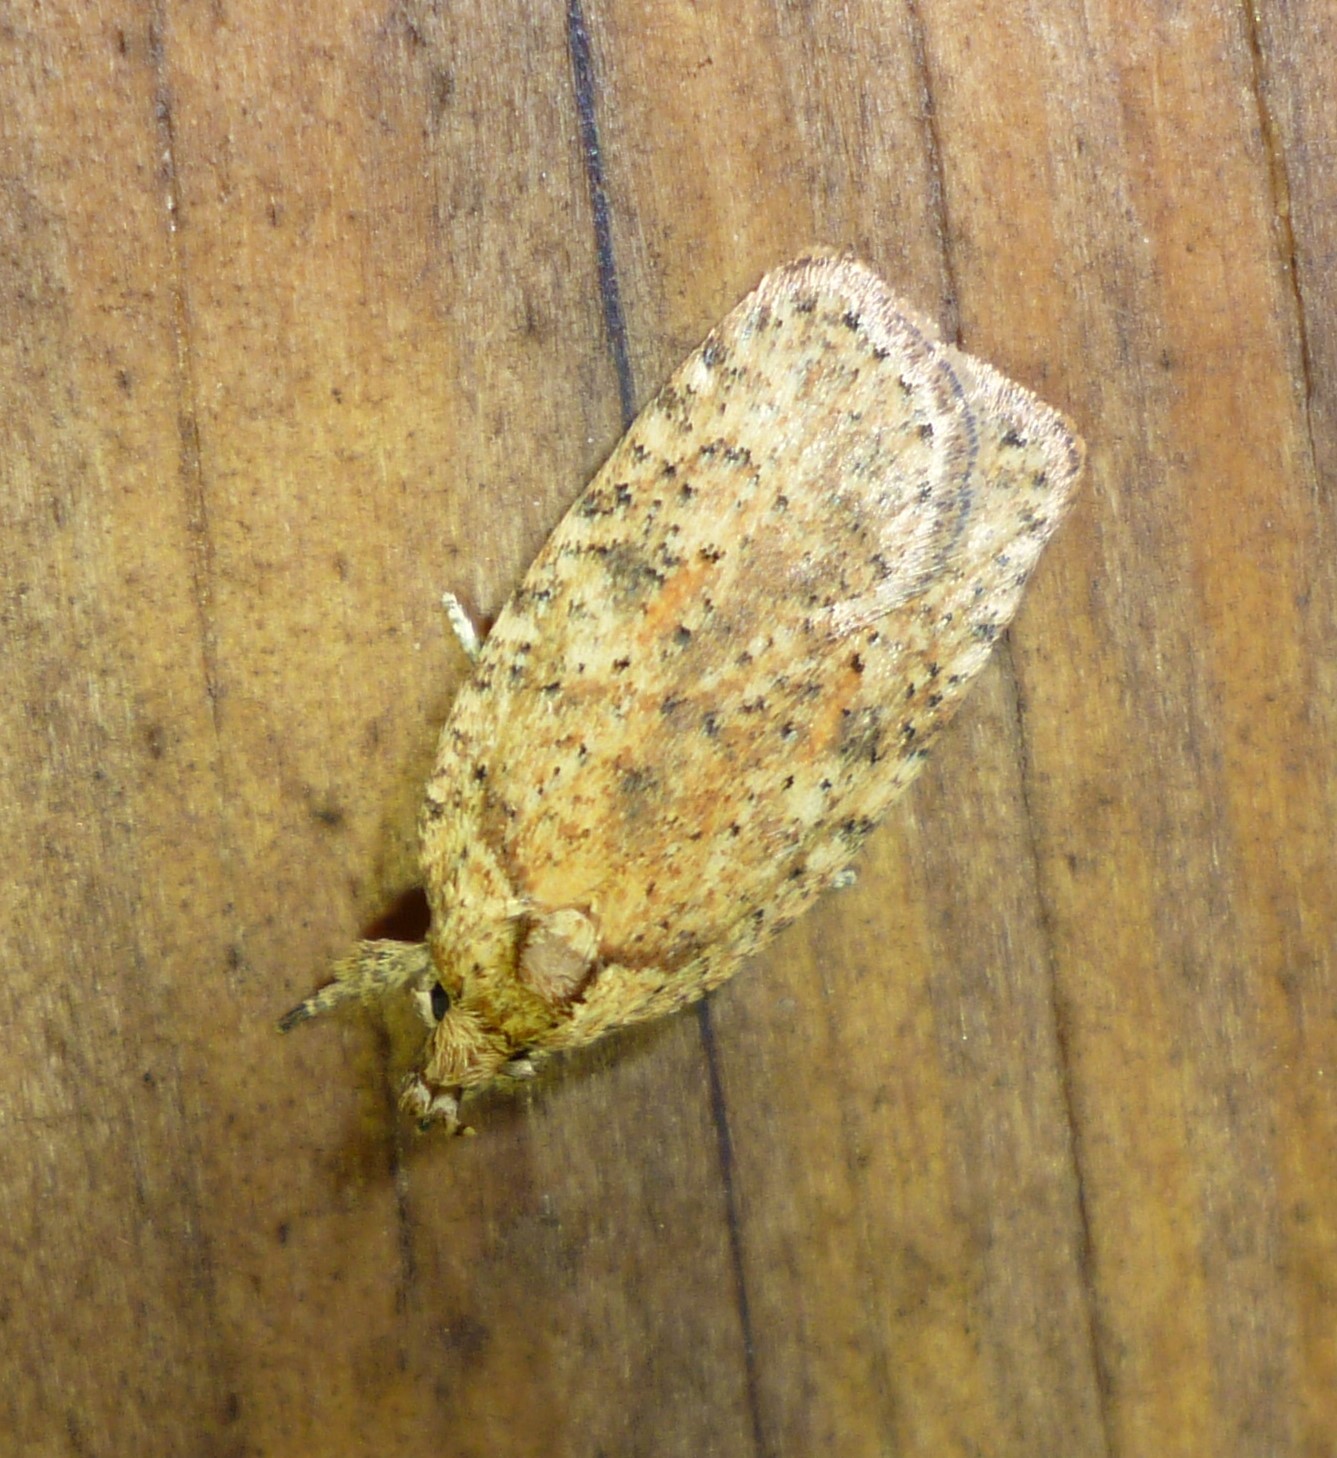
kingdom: Animalia
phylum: Arthropoda
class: Insecta
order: Lepidoptera
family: Depressariidae
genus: Agonopterix
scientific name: Agonopterix thelmae
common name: Thelma's agonopterix moth
